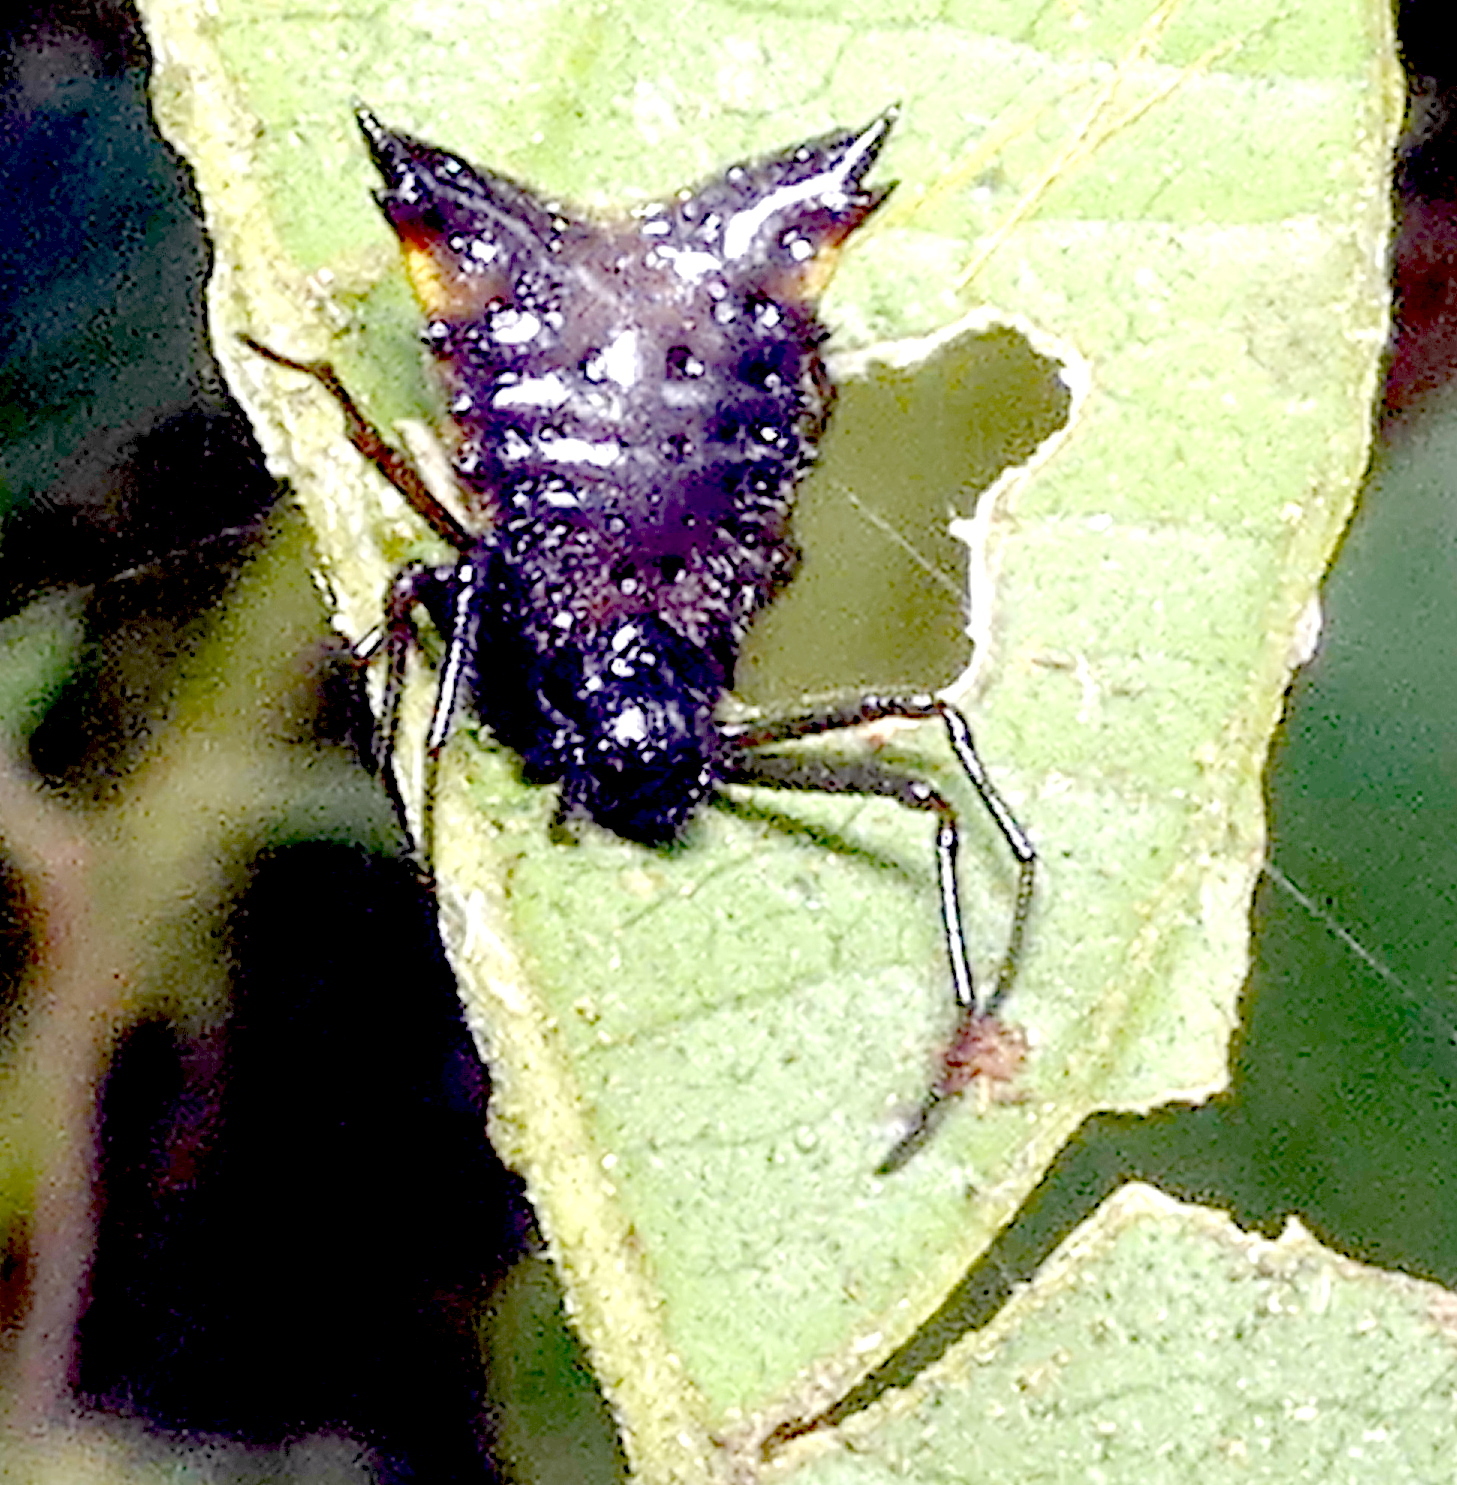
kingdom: Animalia
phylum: Arthropoda
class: Arachnida
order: Araneae
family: Araneidae
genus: Micrathena
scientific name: Micrathena triangularis
